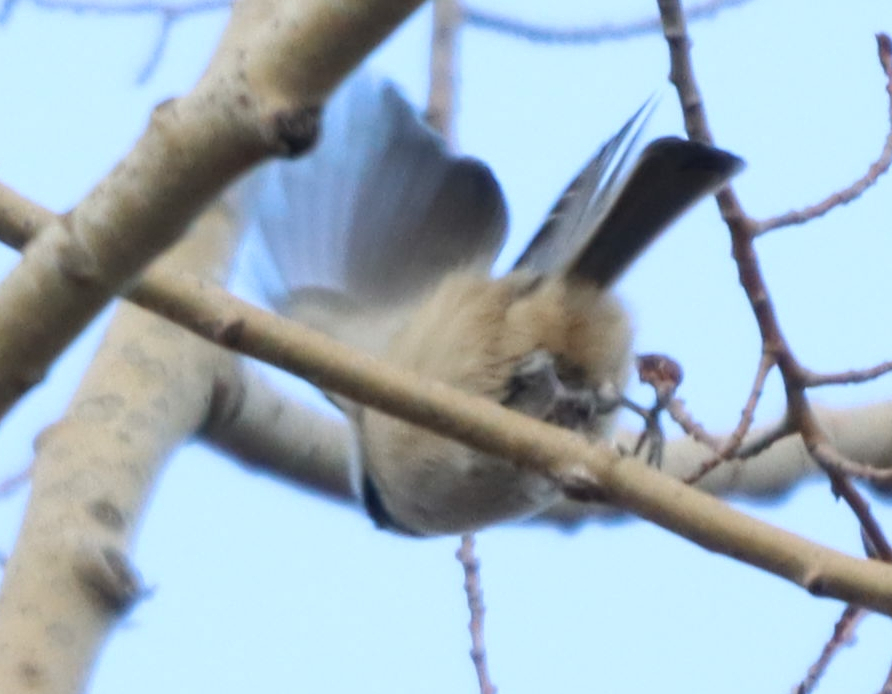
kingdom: Animalia
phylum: Chordata
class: Aves
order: Passeriformes
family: Paridae
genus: Poecile
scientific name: Poecile atricapillus
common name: Black-capped chickadee
